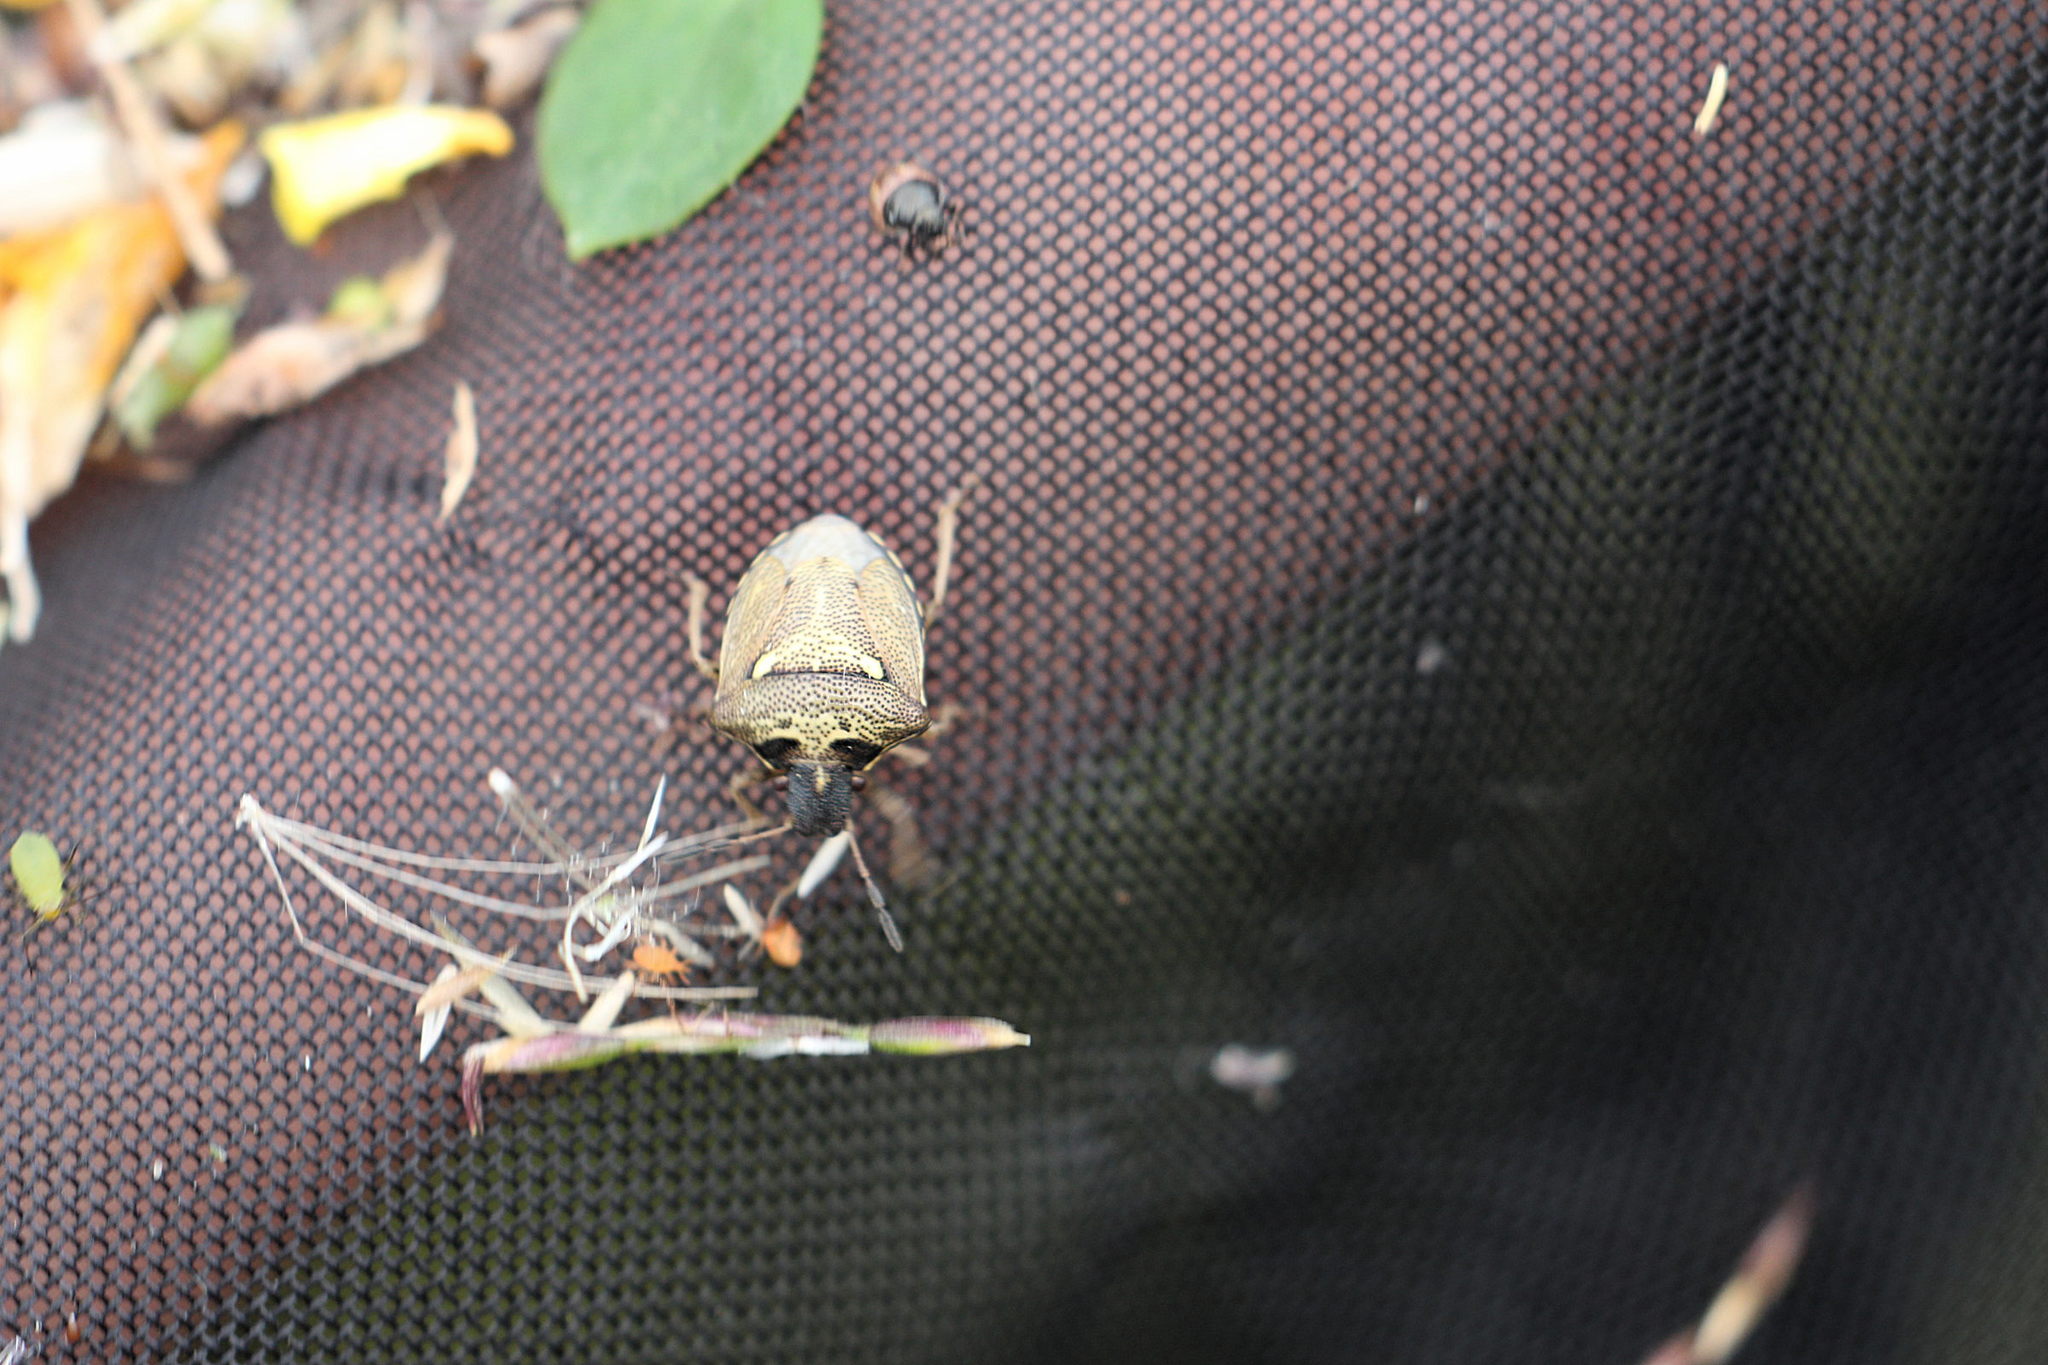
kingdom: Animalia
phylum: Arthropoda
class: Insecta
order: Hemiptera
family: Pentatomidae
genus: Eysarcoris
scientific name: Eysarcoris aeneus
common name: New forest shieldbug
